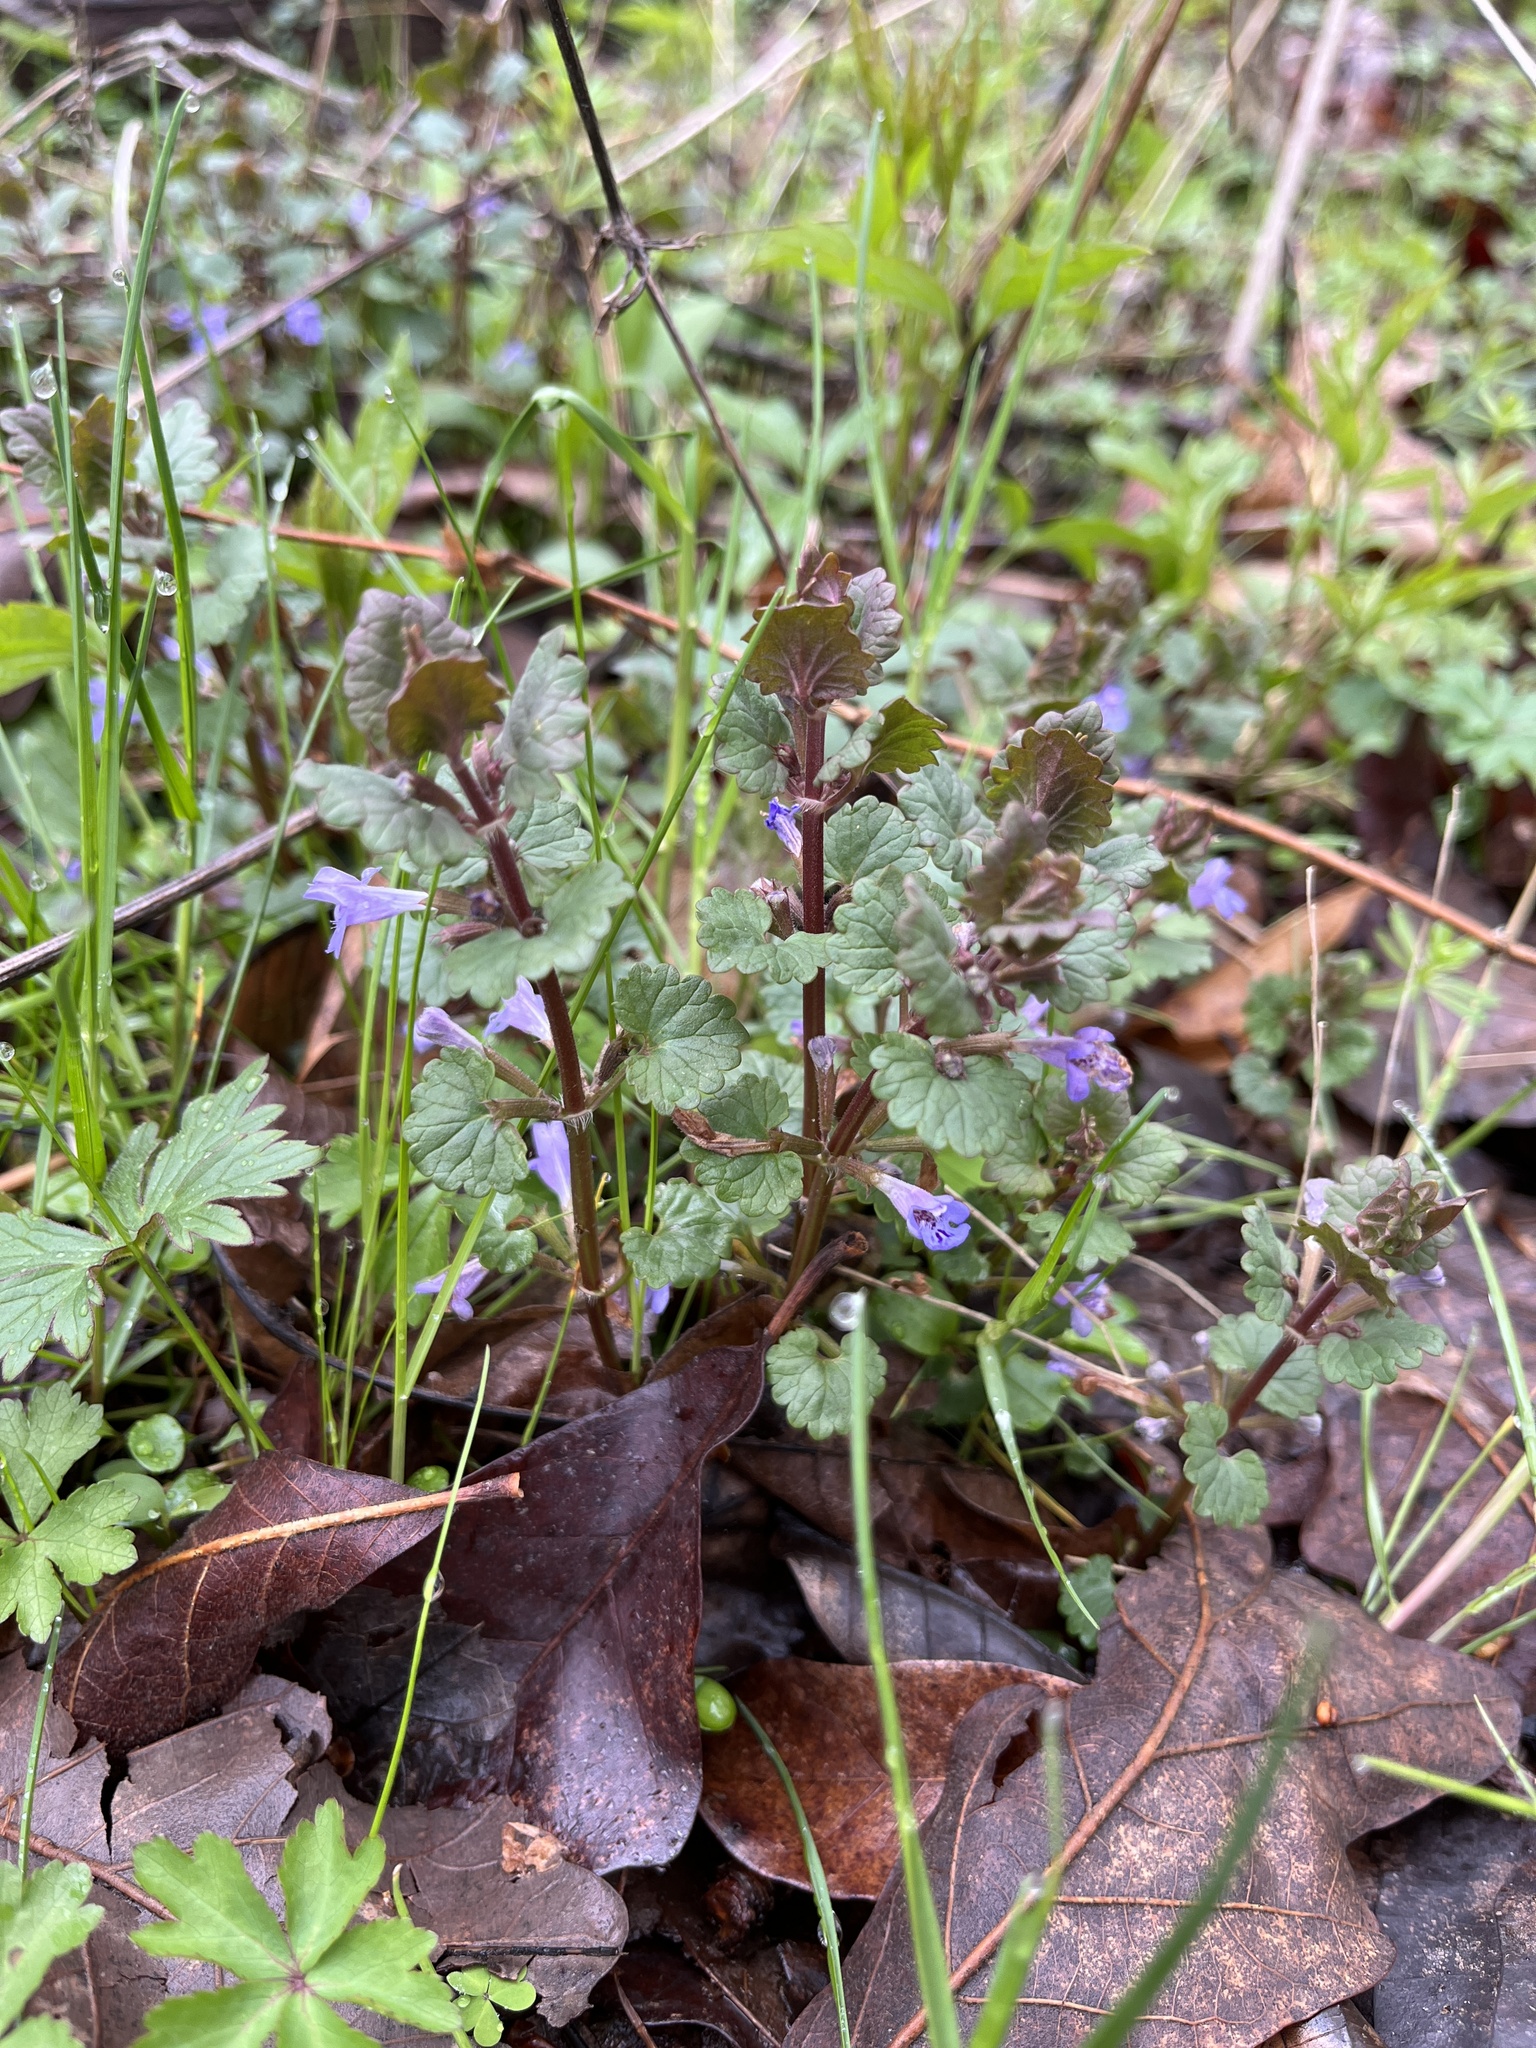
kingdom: Plantae
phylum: Tracheophyta
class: Magnoliopsida
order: Lamiales
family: Lamiaceae
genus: Glechoma
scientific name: Glechoma hederacea
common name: Ground ivy
